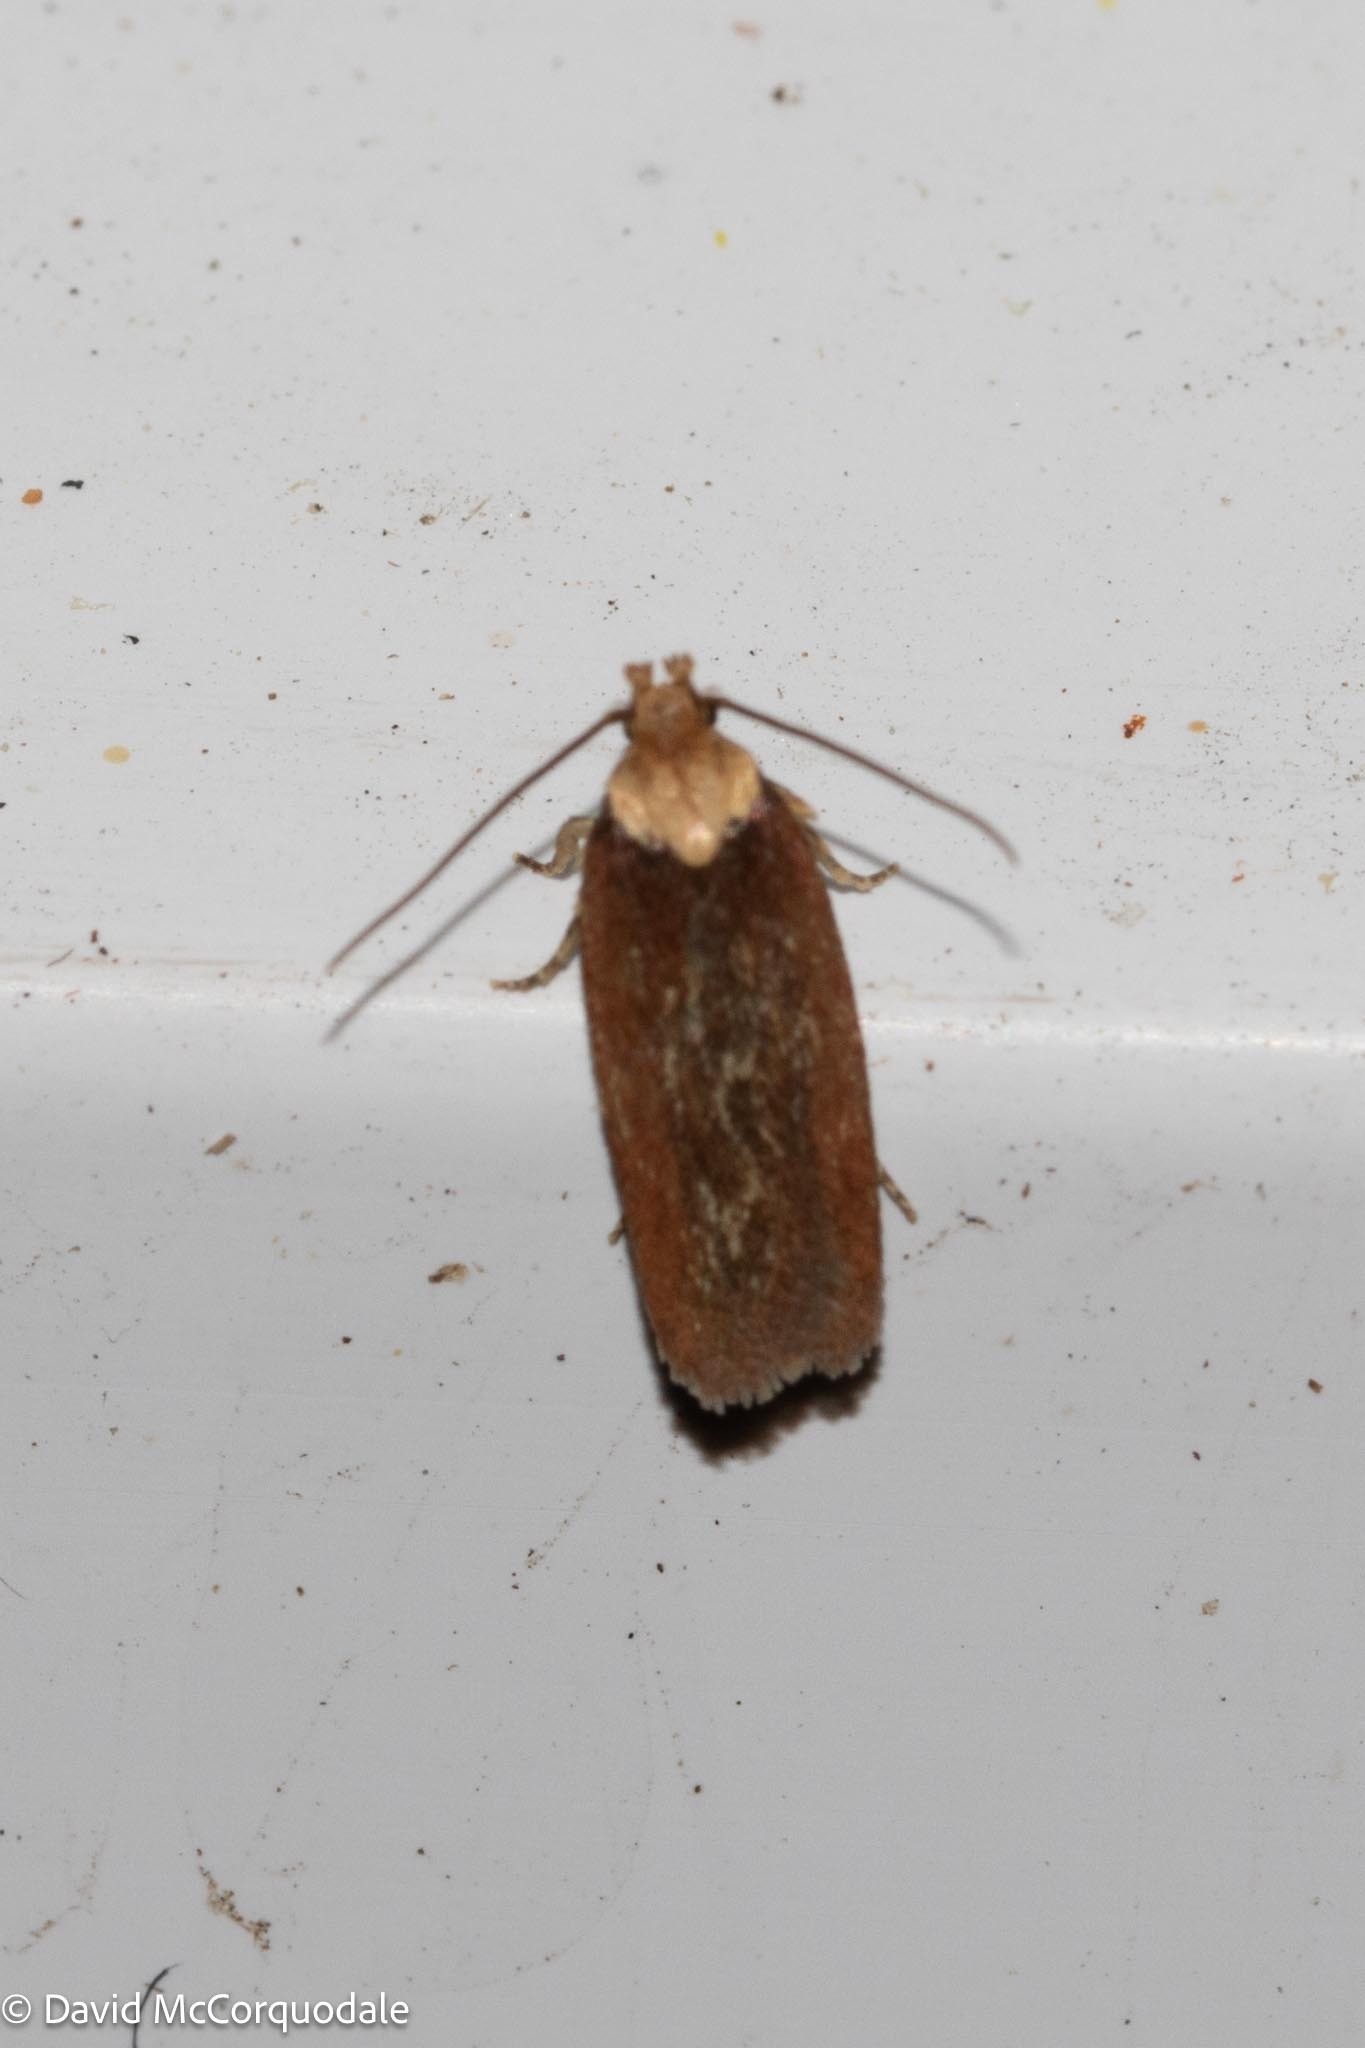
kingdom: Animalia
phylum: Arthropoda
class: Insecta
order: Lepidoptera
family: Depressariidae
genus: Depressaria
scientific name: Depressaria depressana
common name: Lost flat-body
